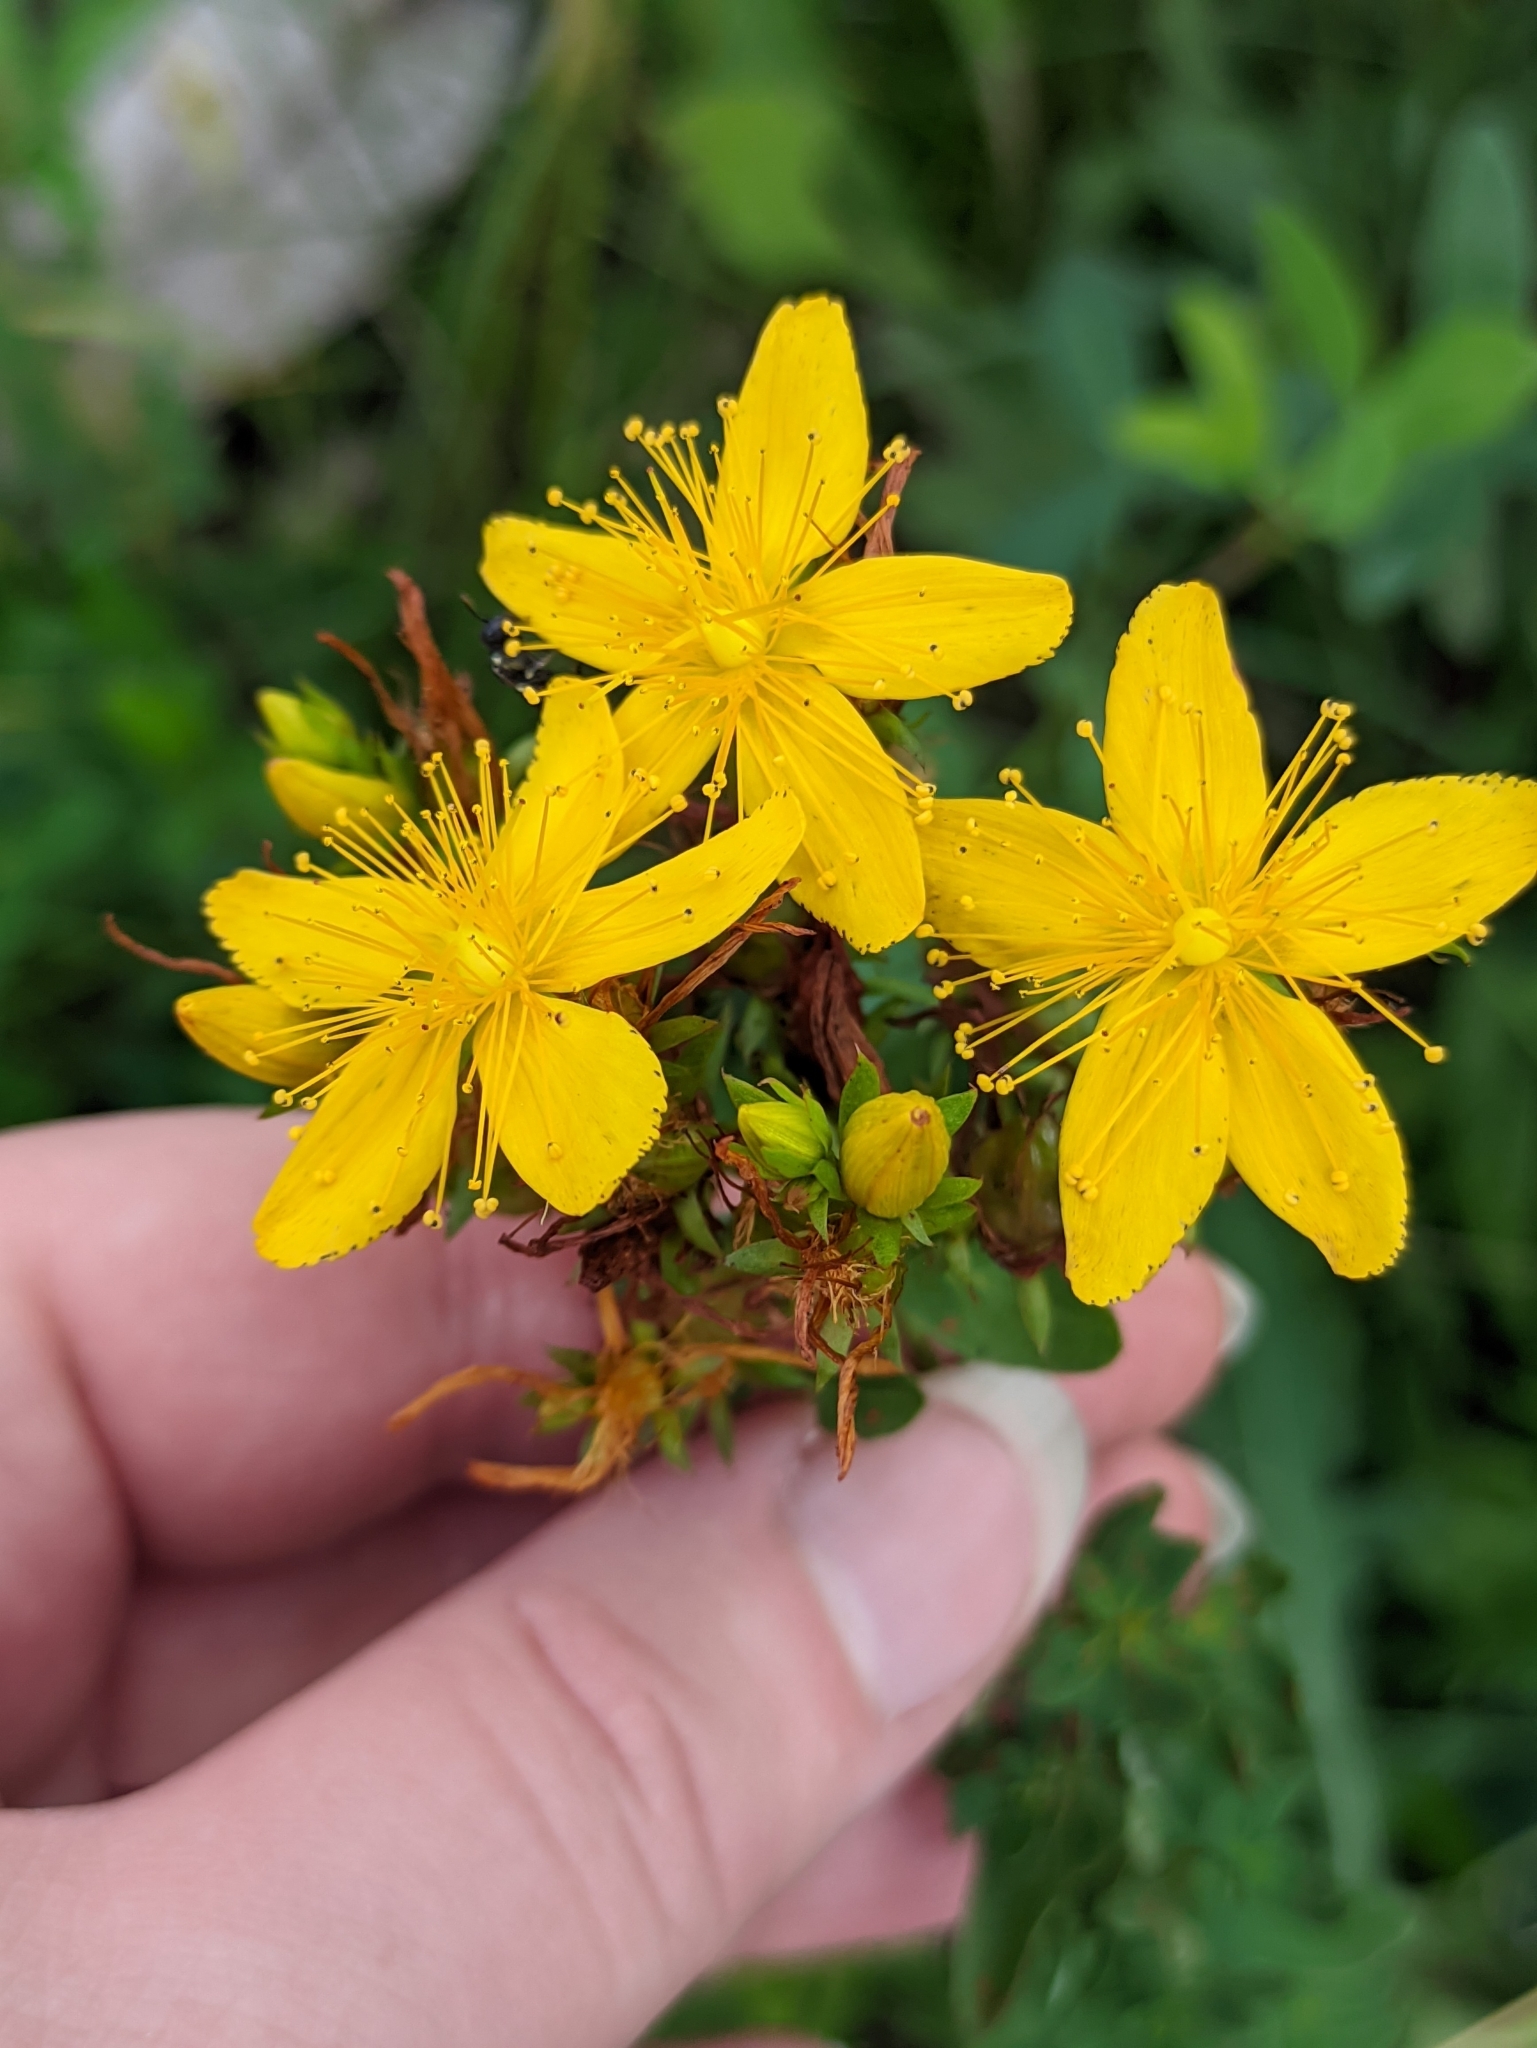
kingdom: Plantae
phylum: Tracheophyta
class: Magnoliopsida
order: Malpighiales
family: Hypericaceae
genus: Hypericum
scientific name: Hypericum perforatum
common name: Common st. johnswort
